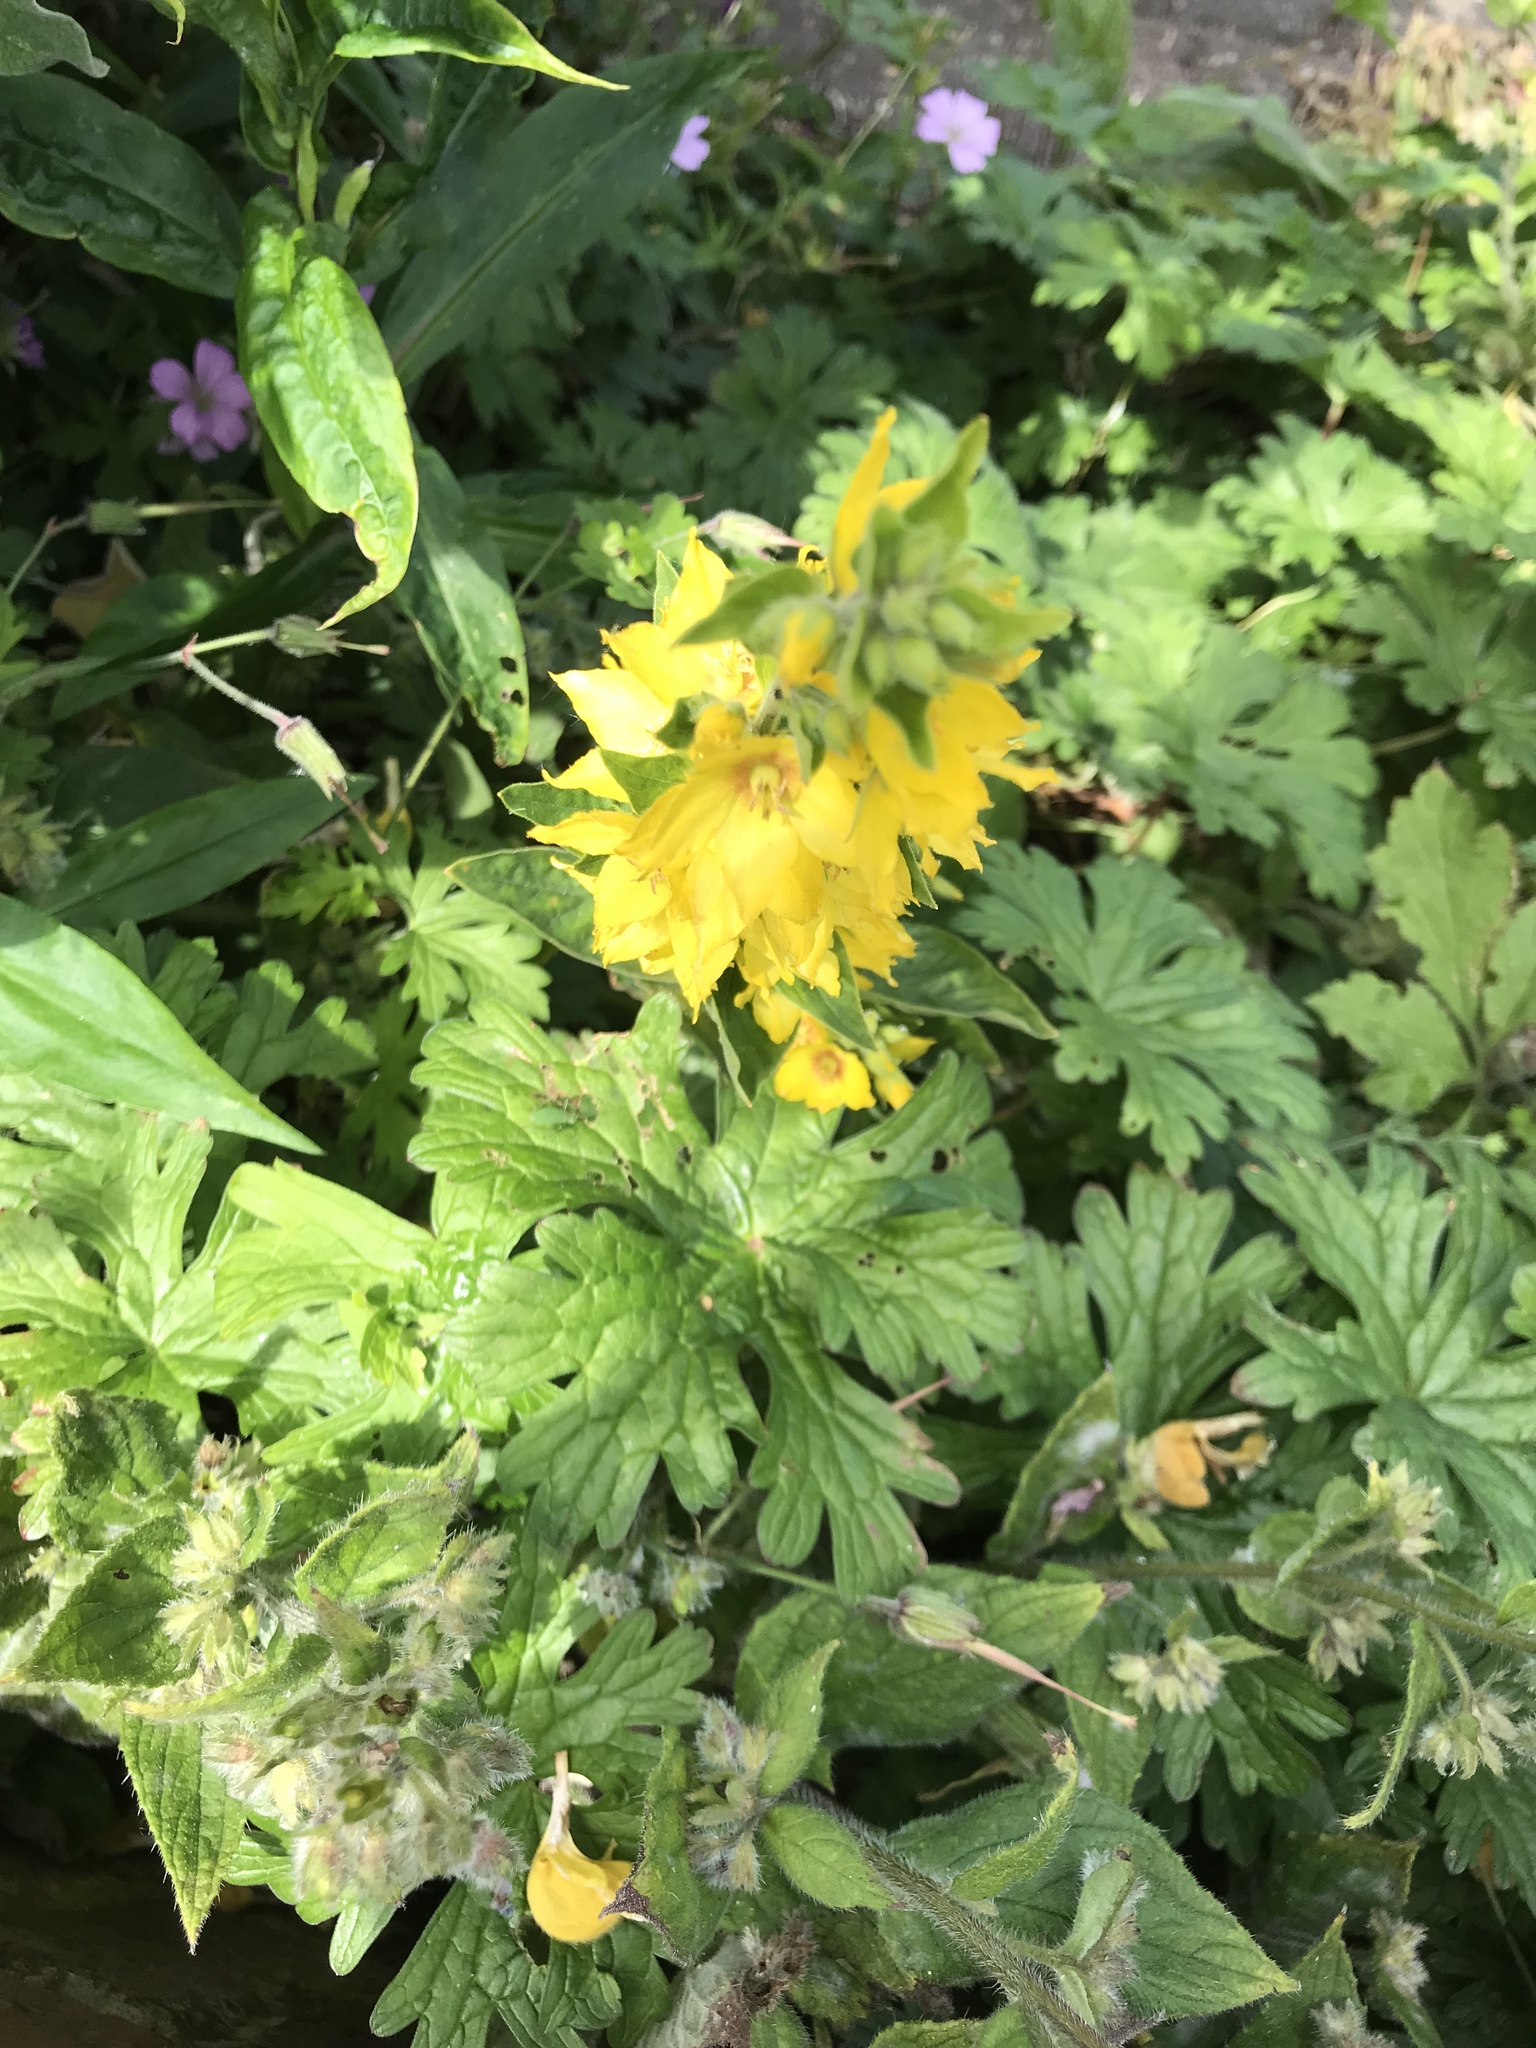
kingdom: Plantae
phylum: Tracheophyta
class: Magnoliopsida
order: Ericales
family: Primulaceae
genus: Lysimachia
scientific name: Lysimachia punctata
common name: Dotted loosestrife
